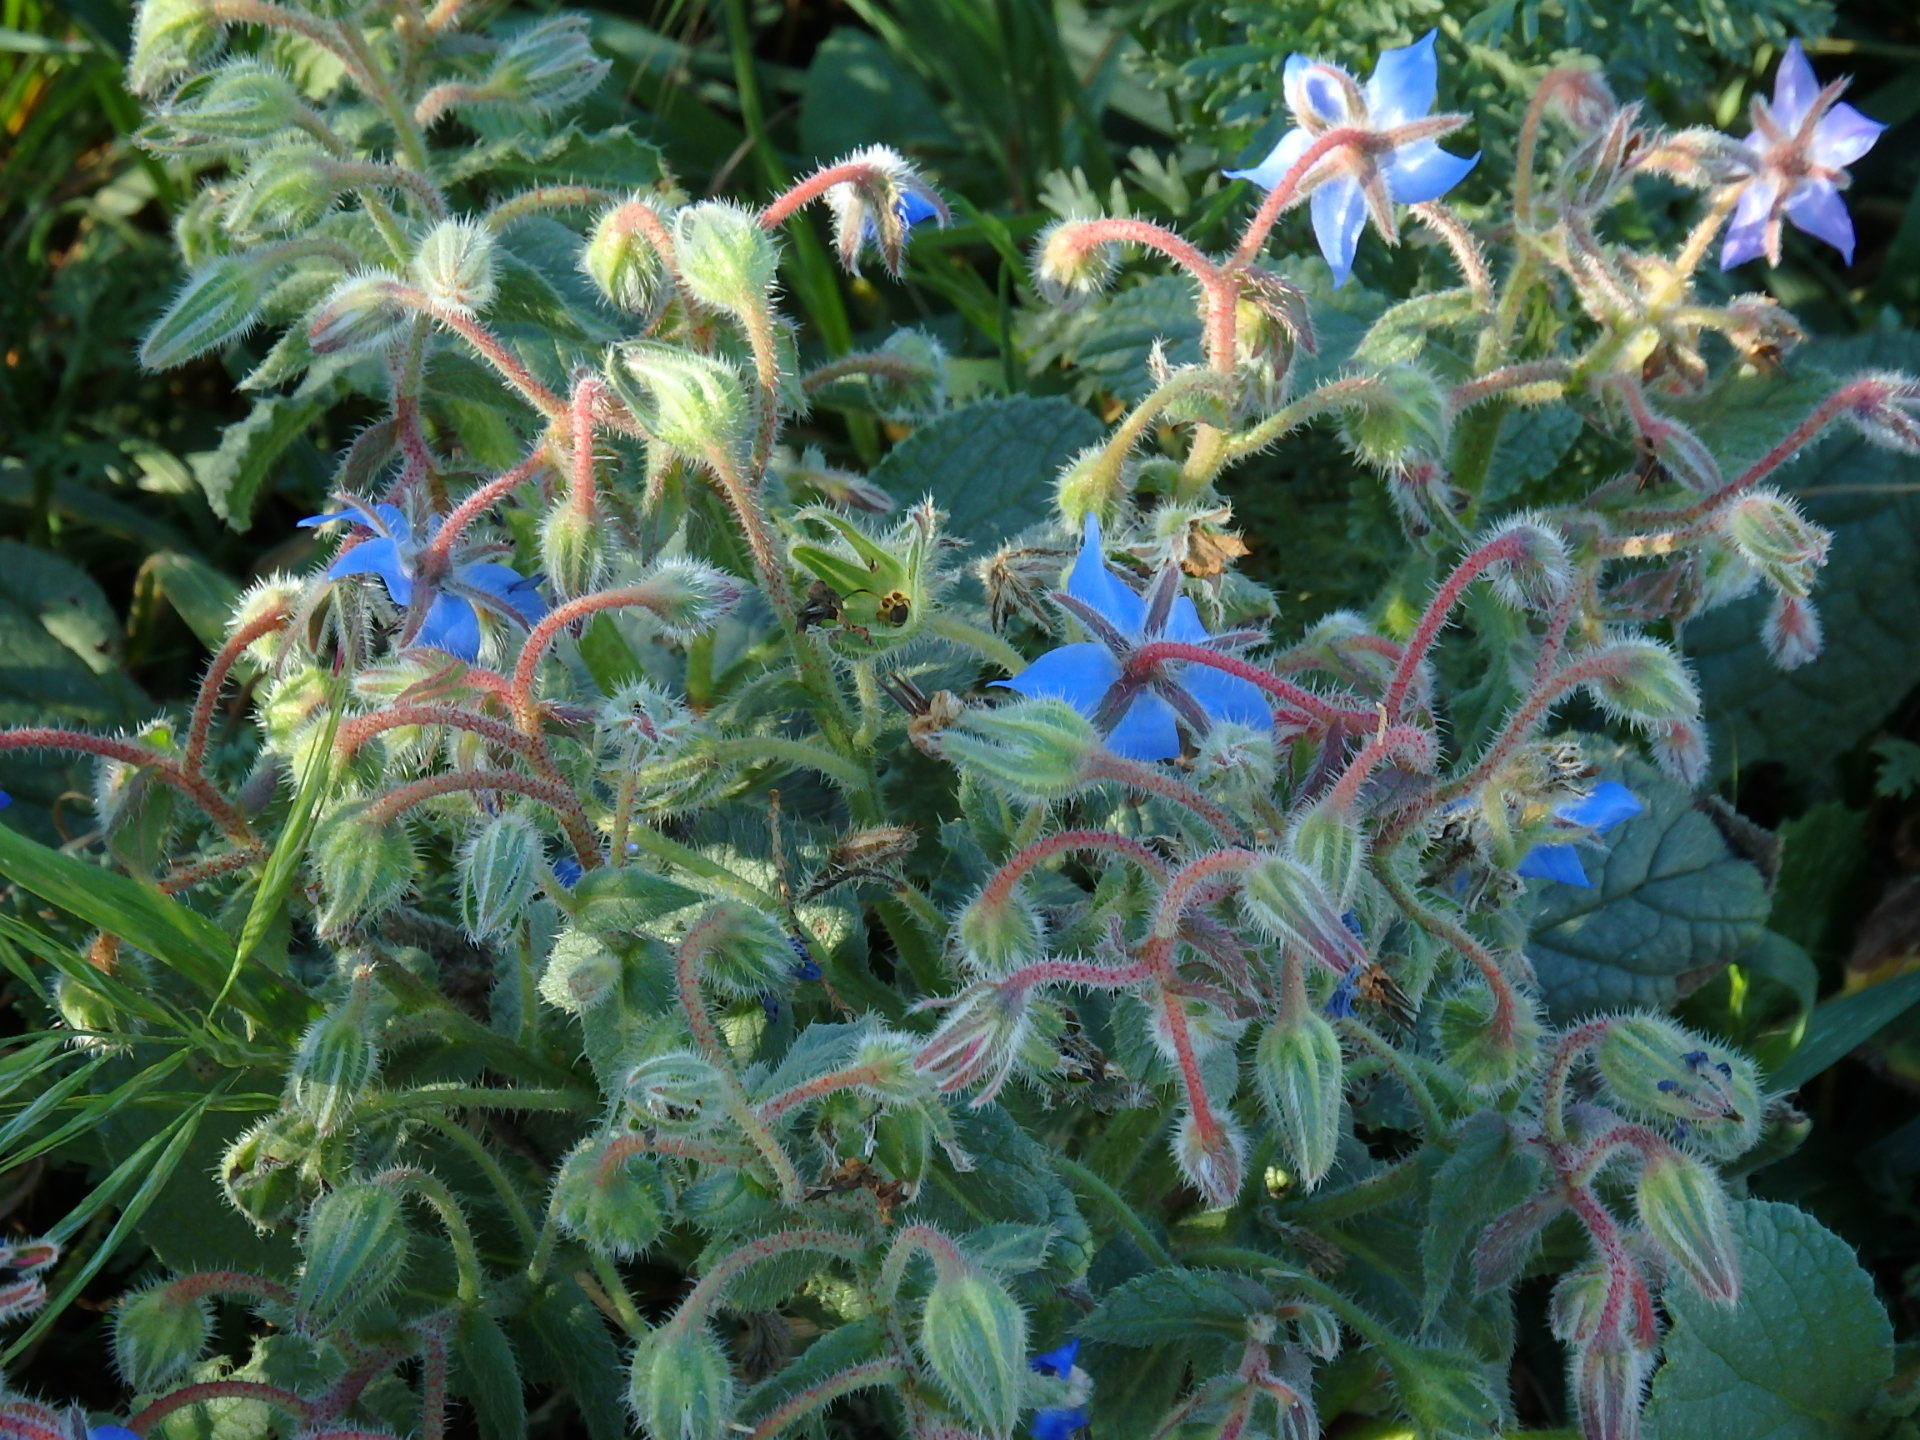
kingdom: Plantae
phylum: Tracheophyta
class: Magnoliopsida
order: Boraginales
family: Boraginaceae
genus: Borago
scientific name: Borago officinalis
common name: Borage
